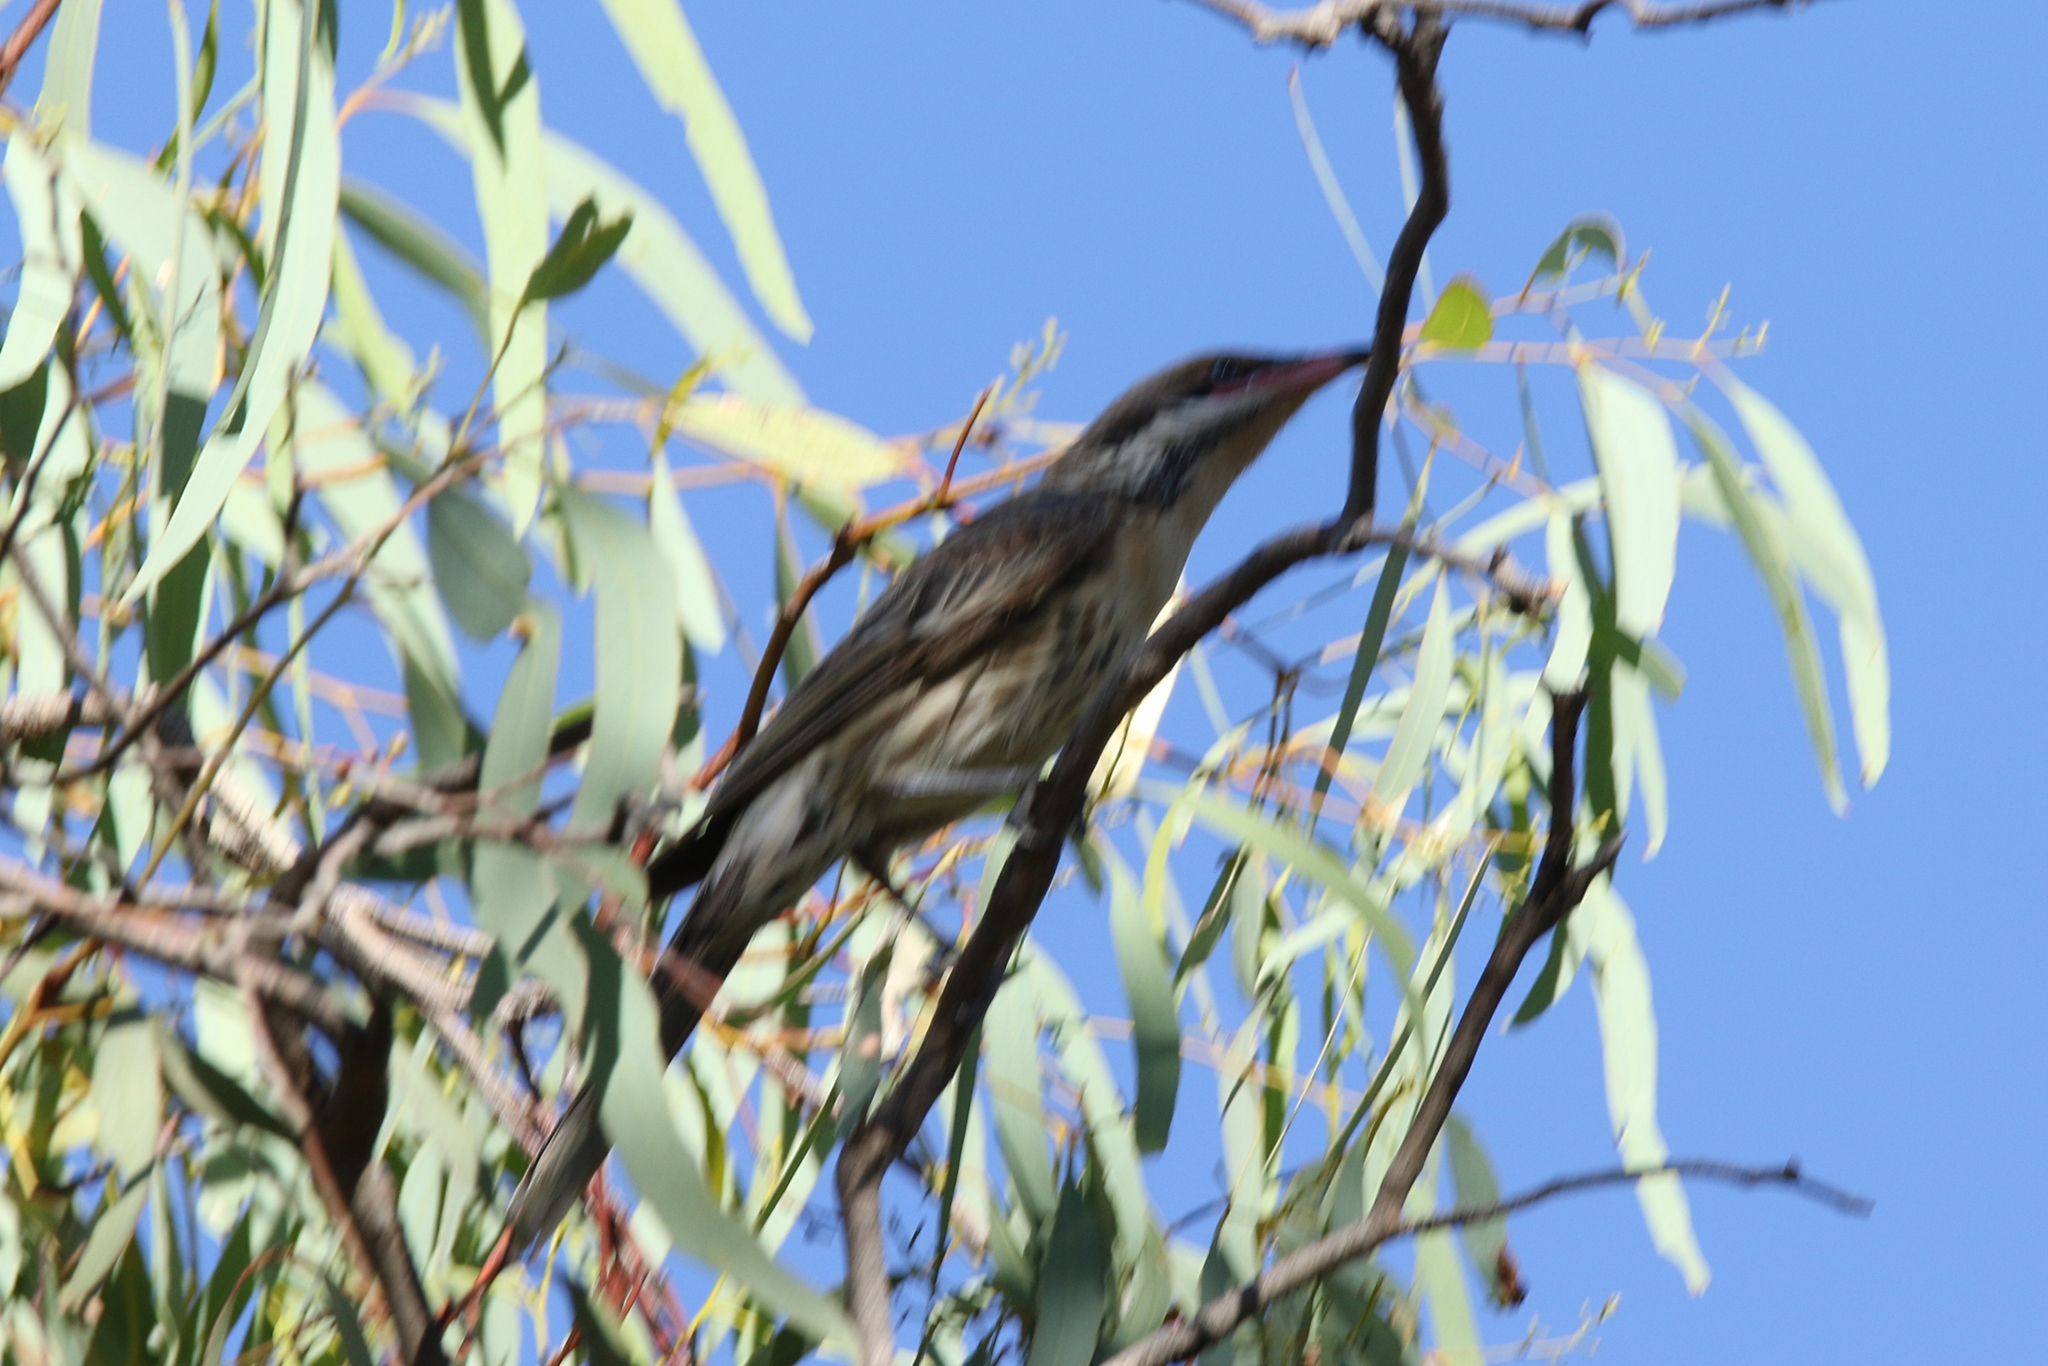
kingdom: Animalia
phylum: Chordata
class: Aves
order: Passeriformes
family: Meliphagidae
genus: Acanthagenys
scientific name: Acanthagenys rufogularis
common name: Spiny-cheeked honeyeater
